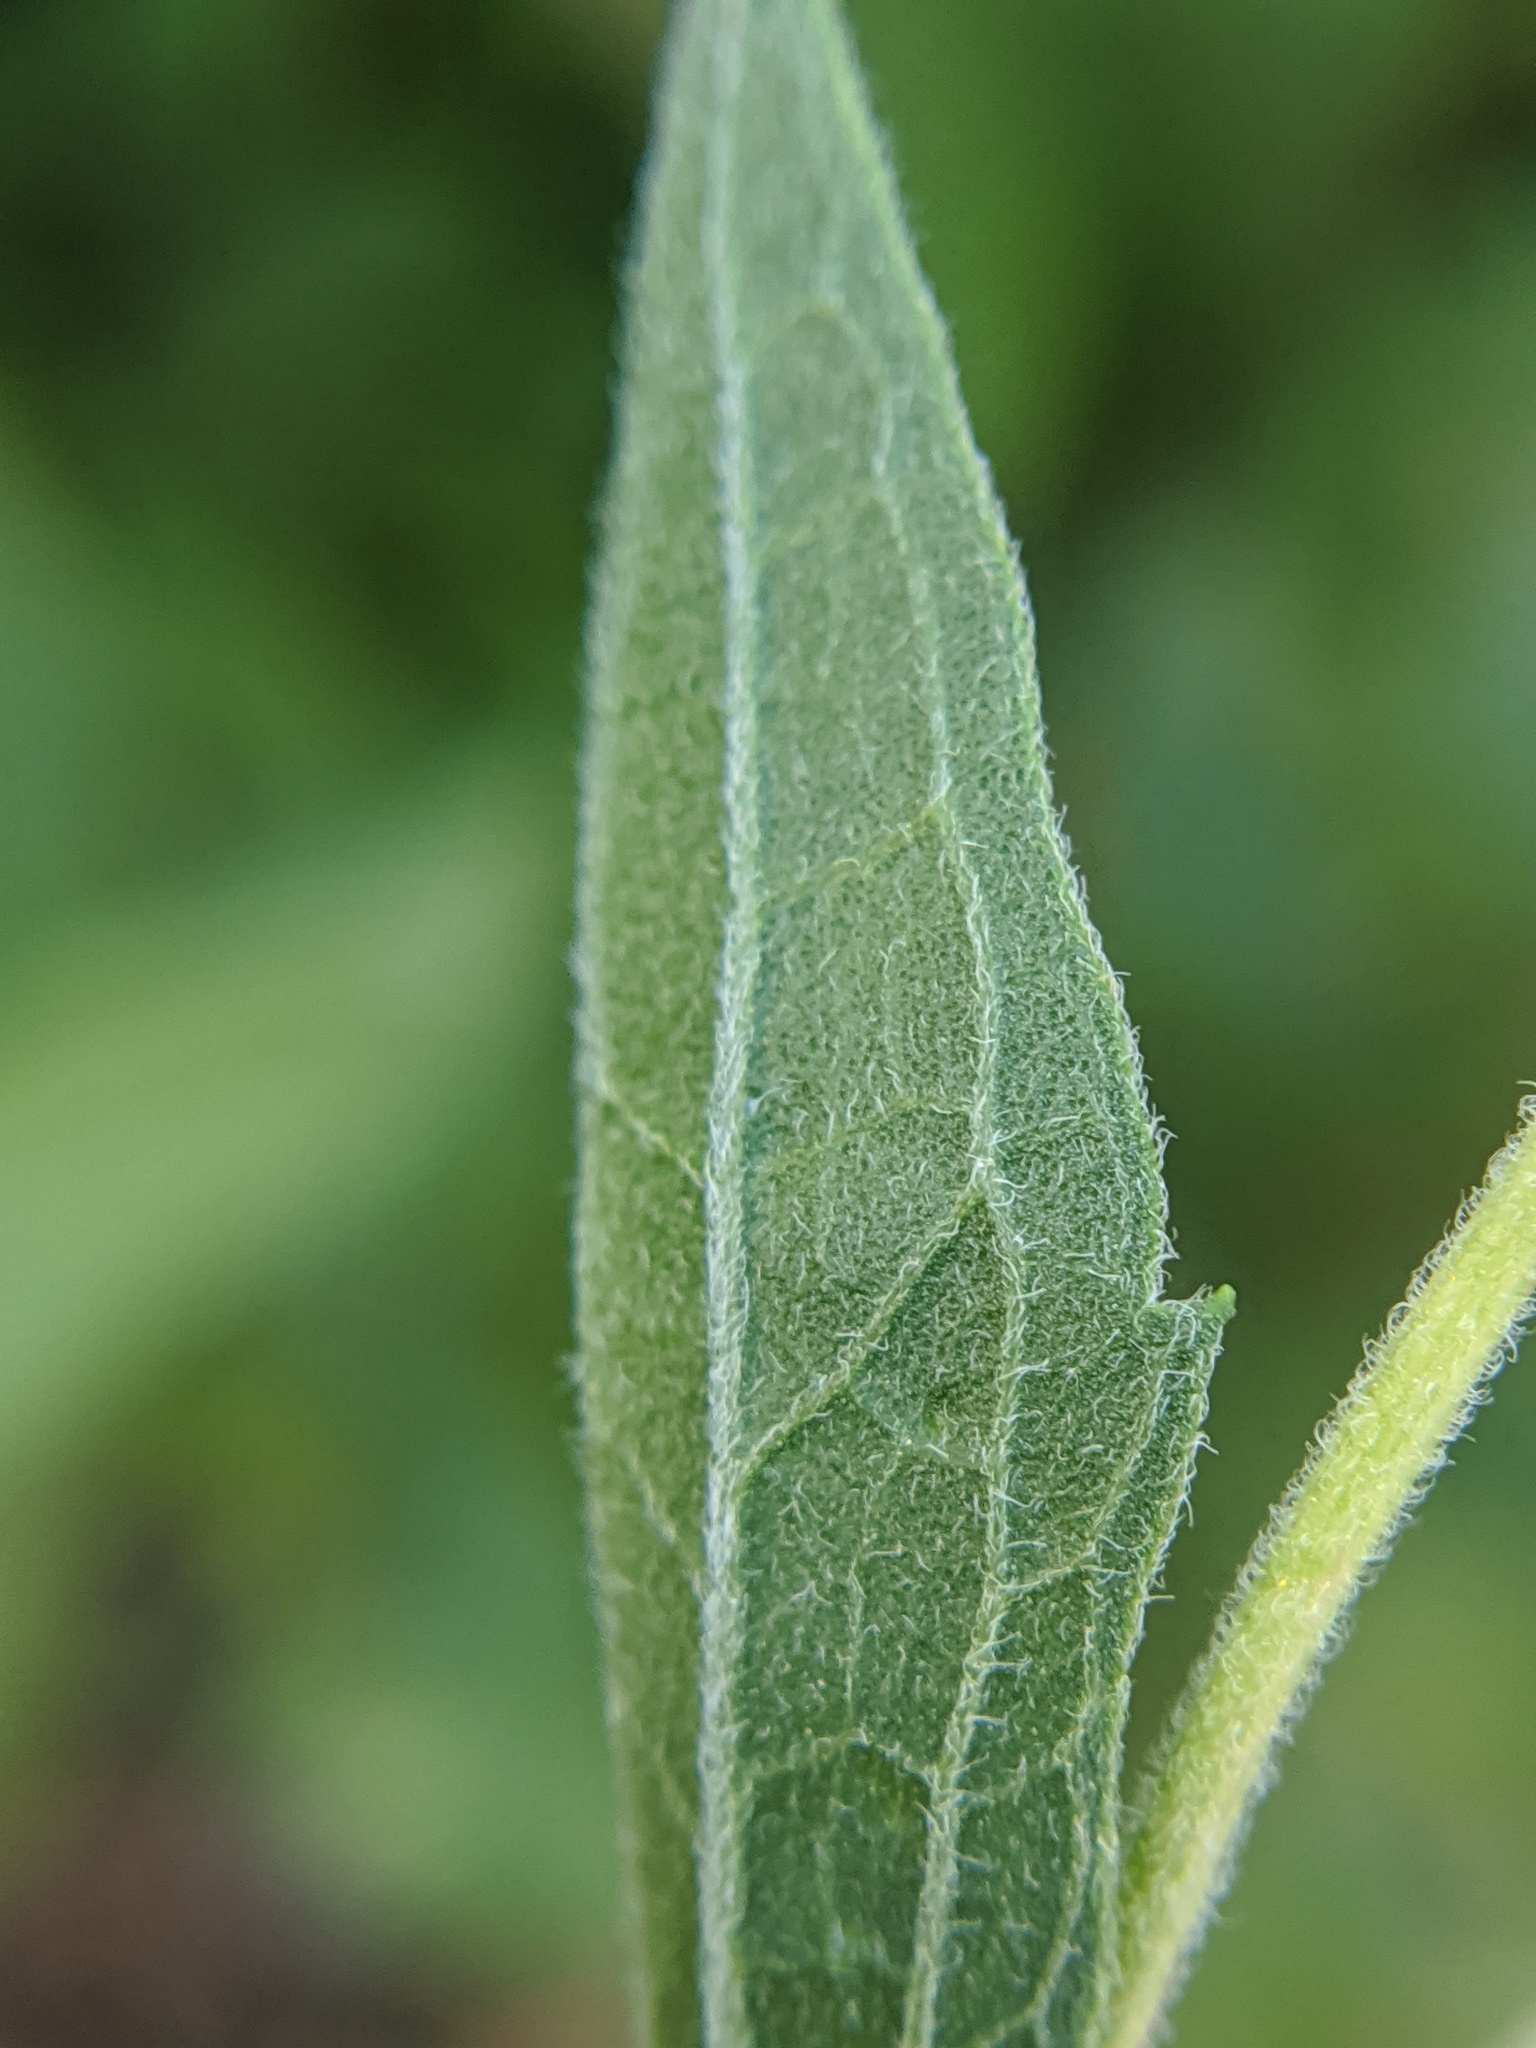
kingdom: Plantae
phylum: Tracheophyta
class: Magnoliopsida
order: Asterales
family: Asteraceae
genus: Eupatorium
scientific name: Eupatorium altissimum
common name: Tall thoroughwort
